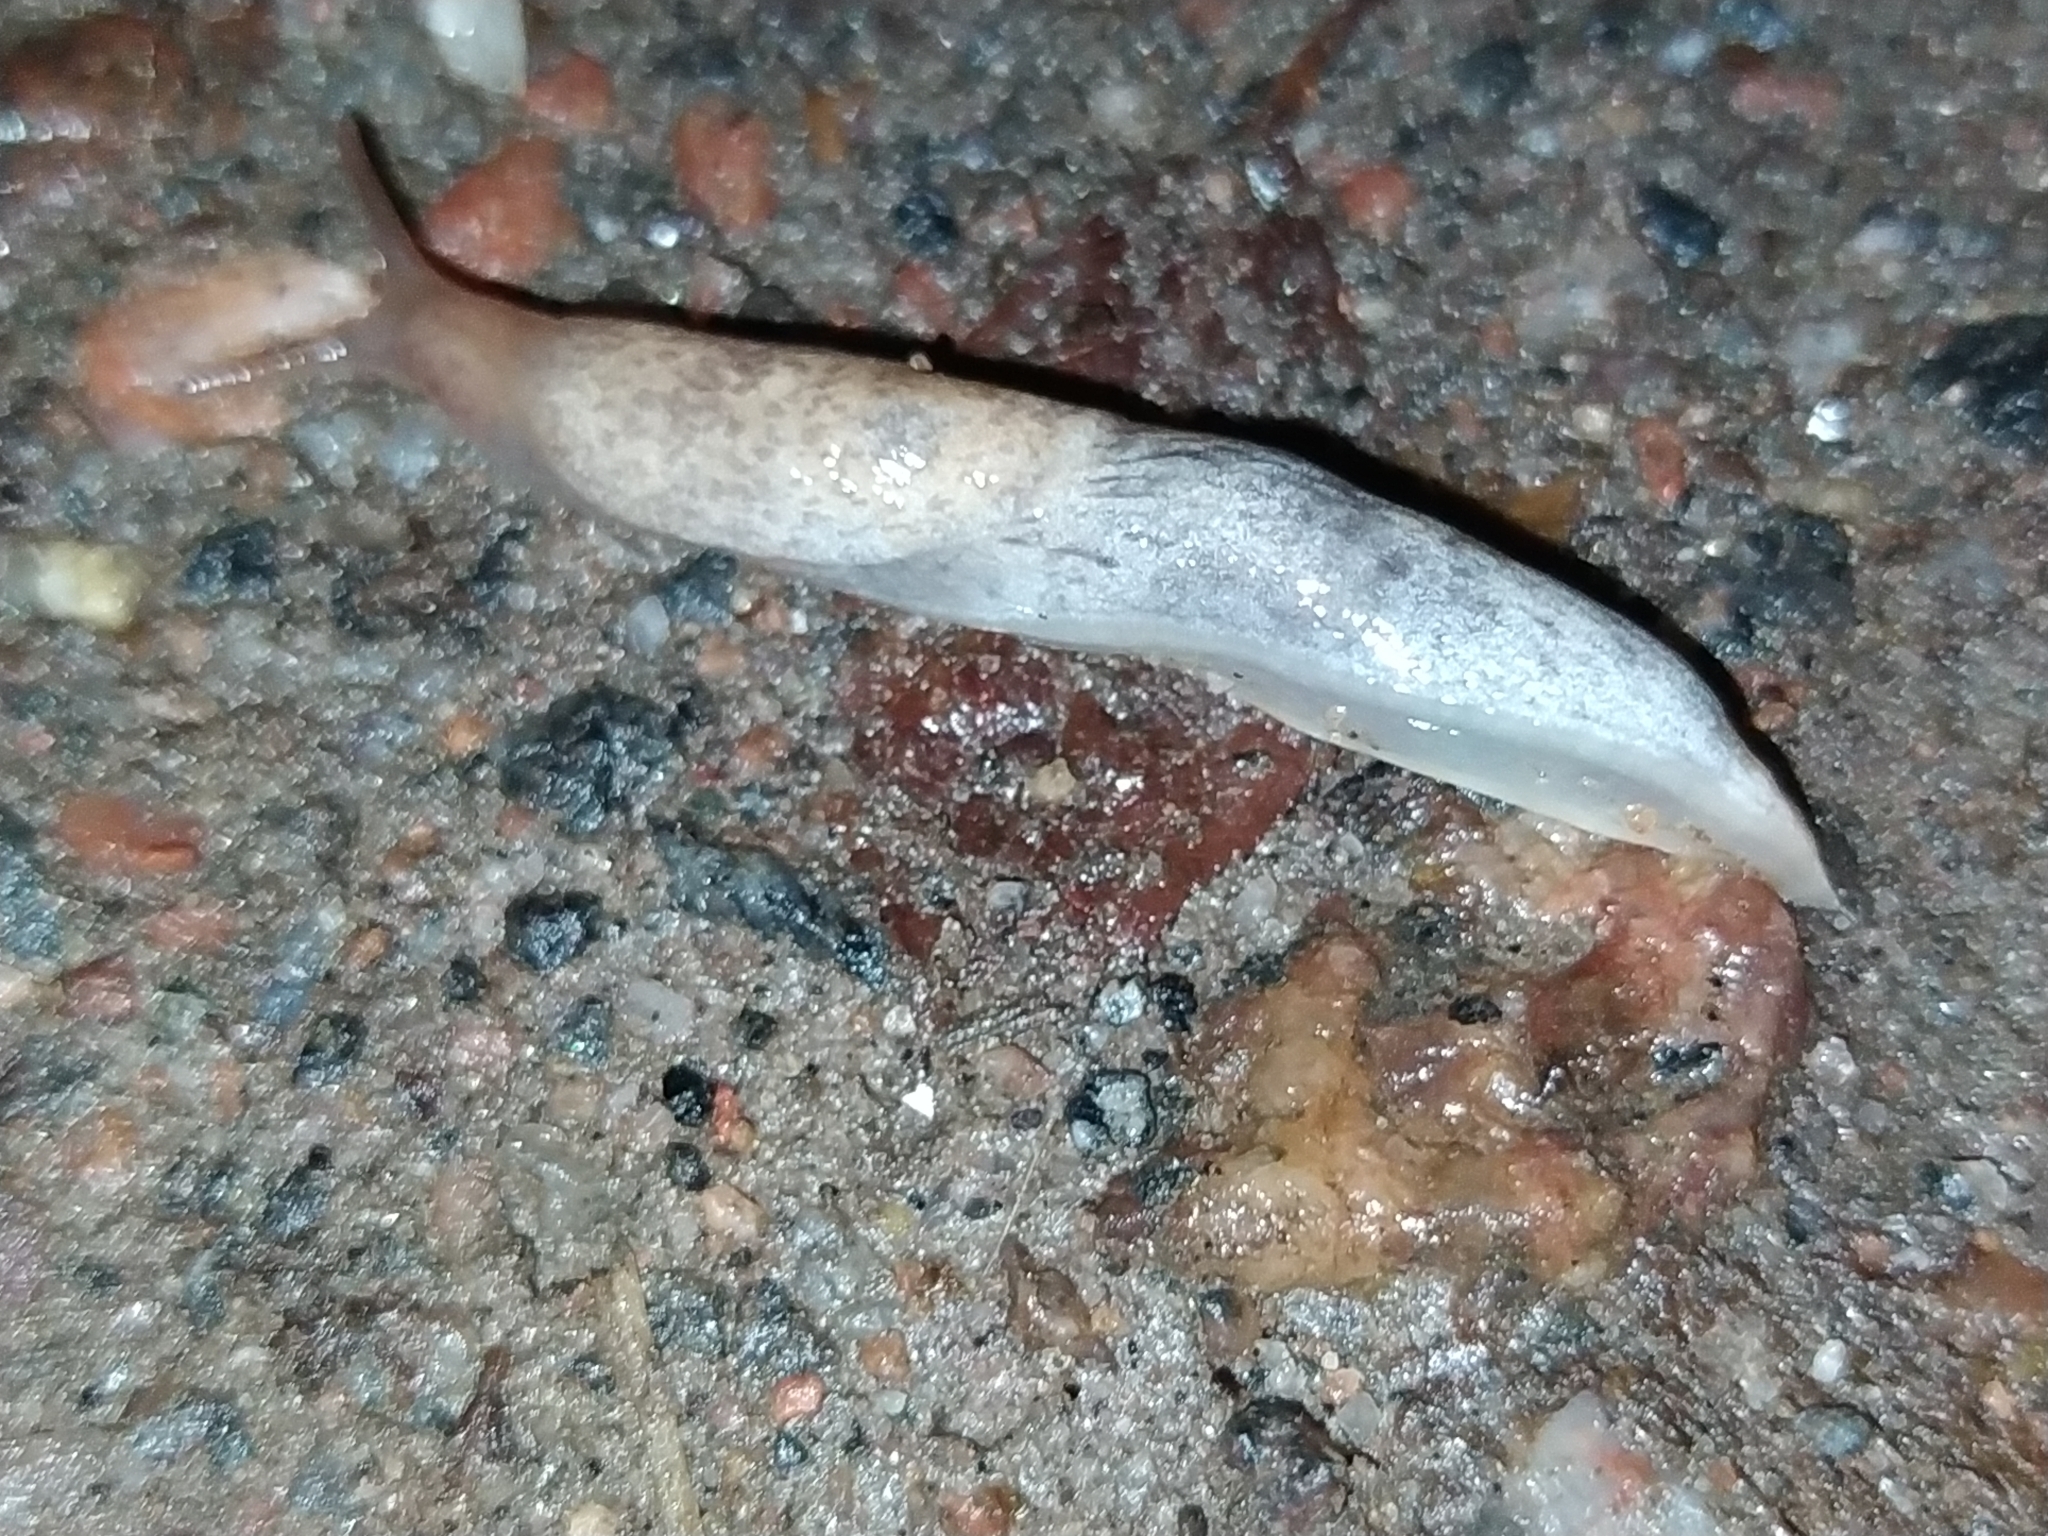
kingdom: Animalia
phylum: Mollusca
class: Gastropoda
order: Stylommatophora
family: Agriolimacidae
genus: Deroceras
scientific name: Deroceras reticulatum
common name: Gray field slug
